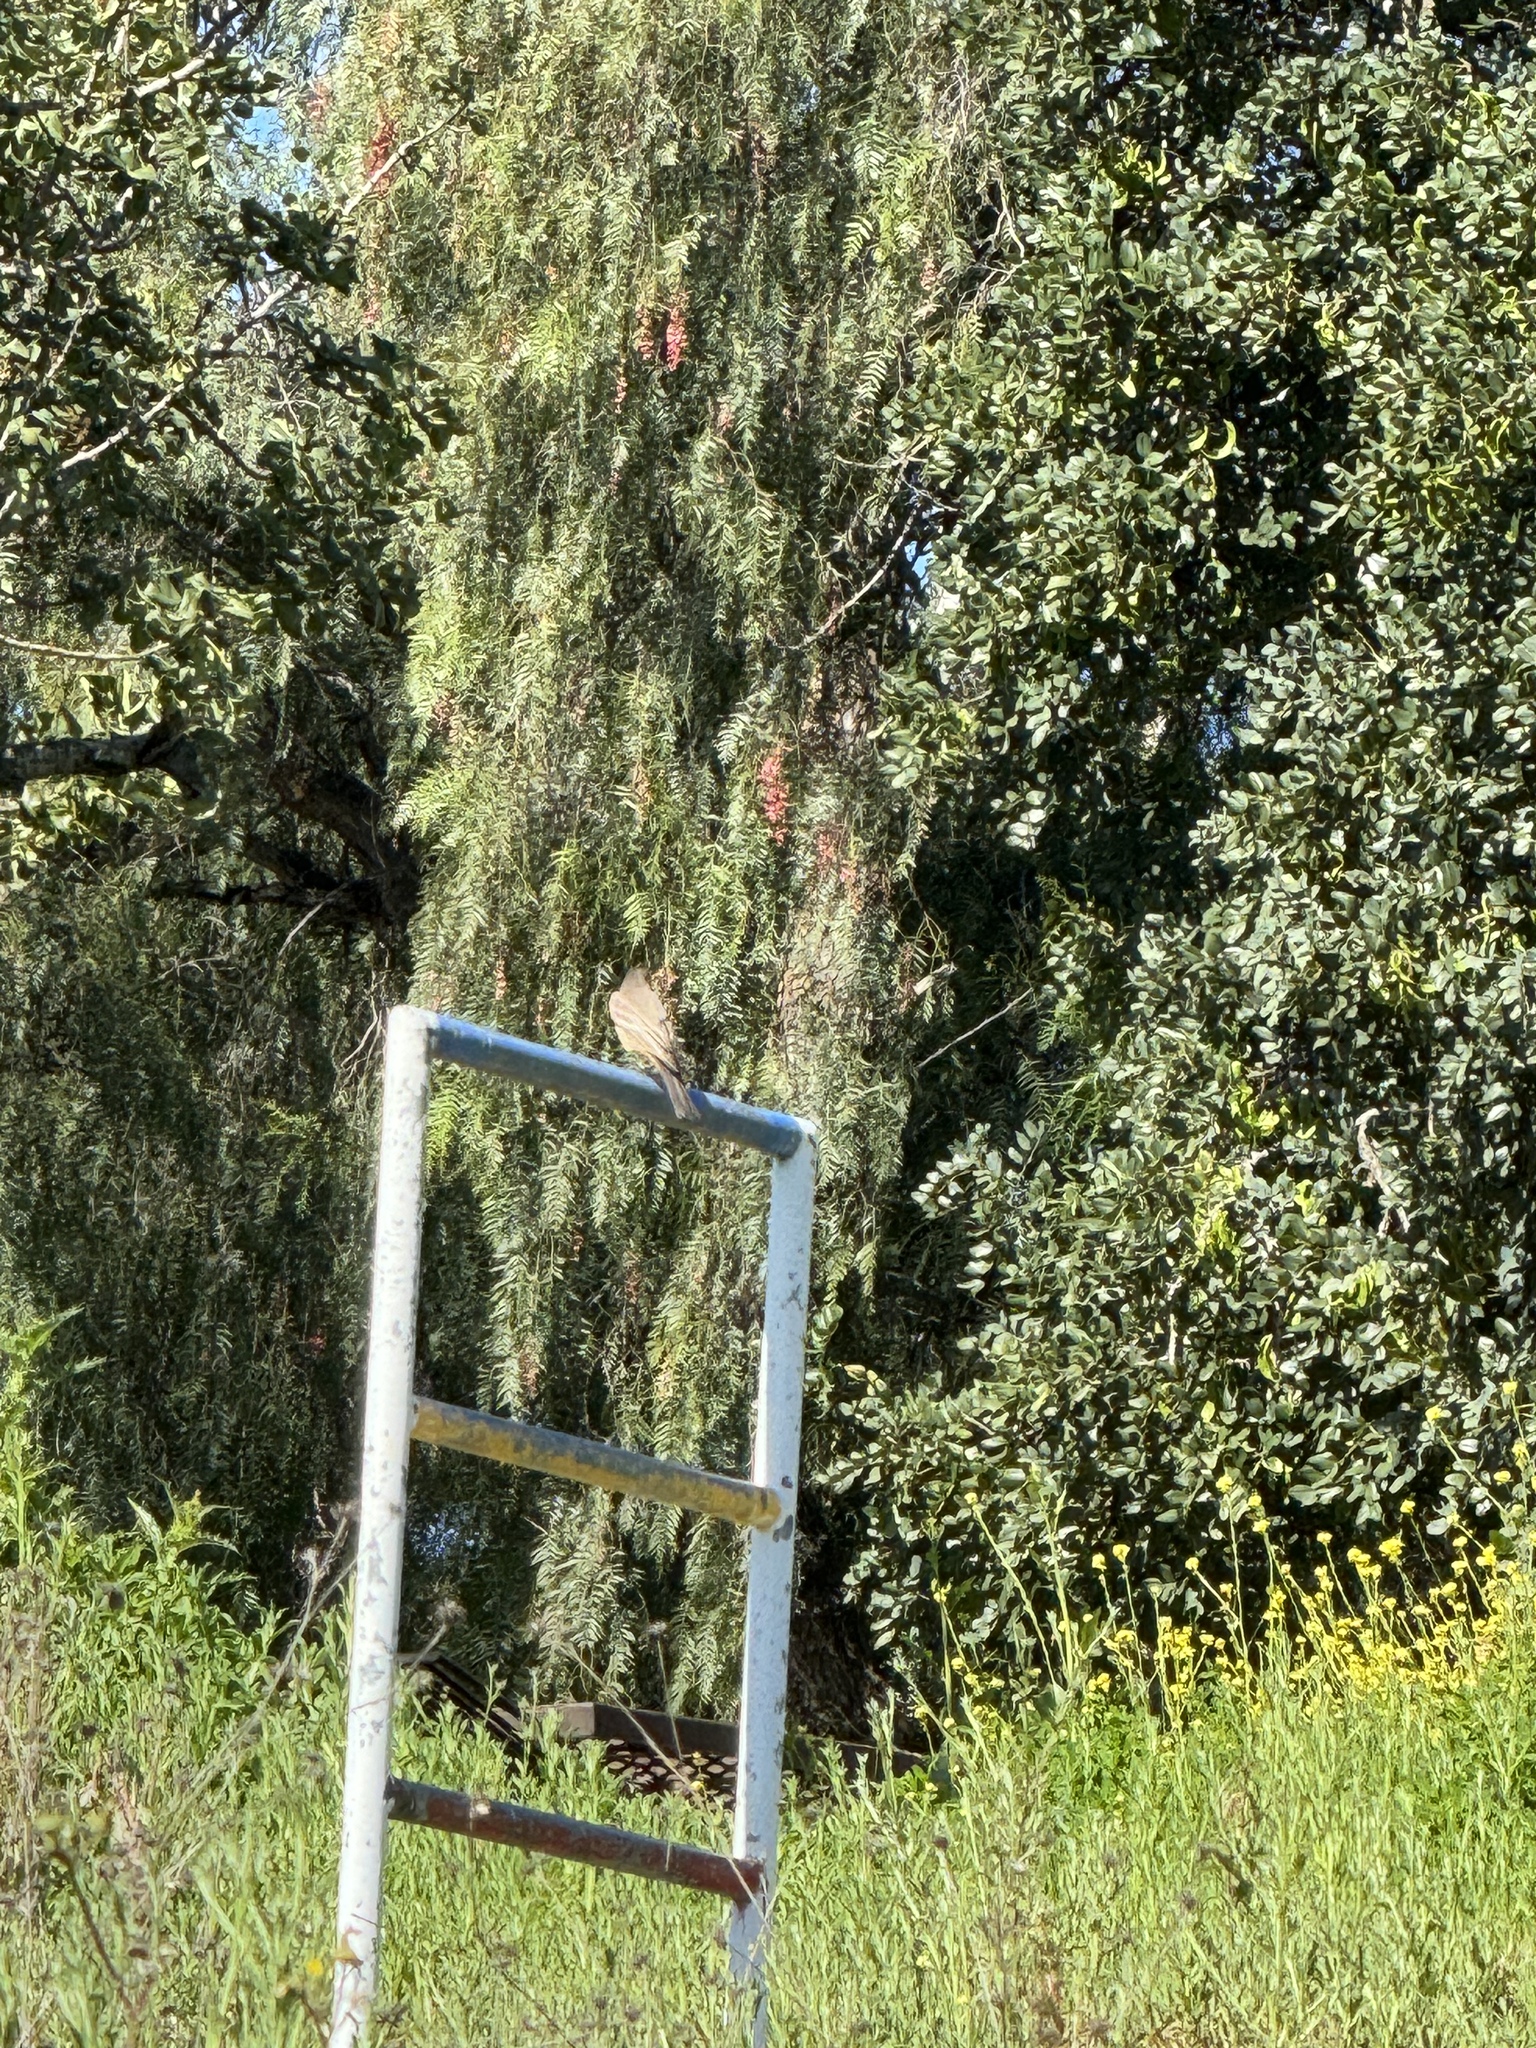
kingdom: Animalia
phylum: Chordata
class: Aves
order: Passeriformes
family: Tyrannidae
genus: Sayornis
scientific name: Sayornis saya
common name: Say's phoebe
